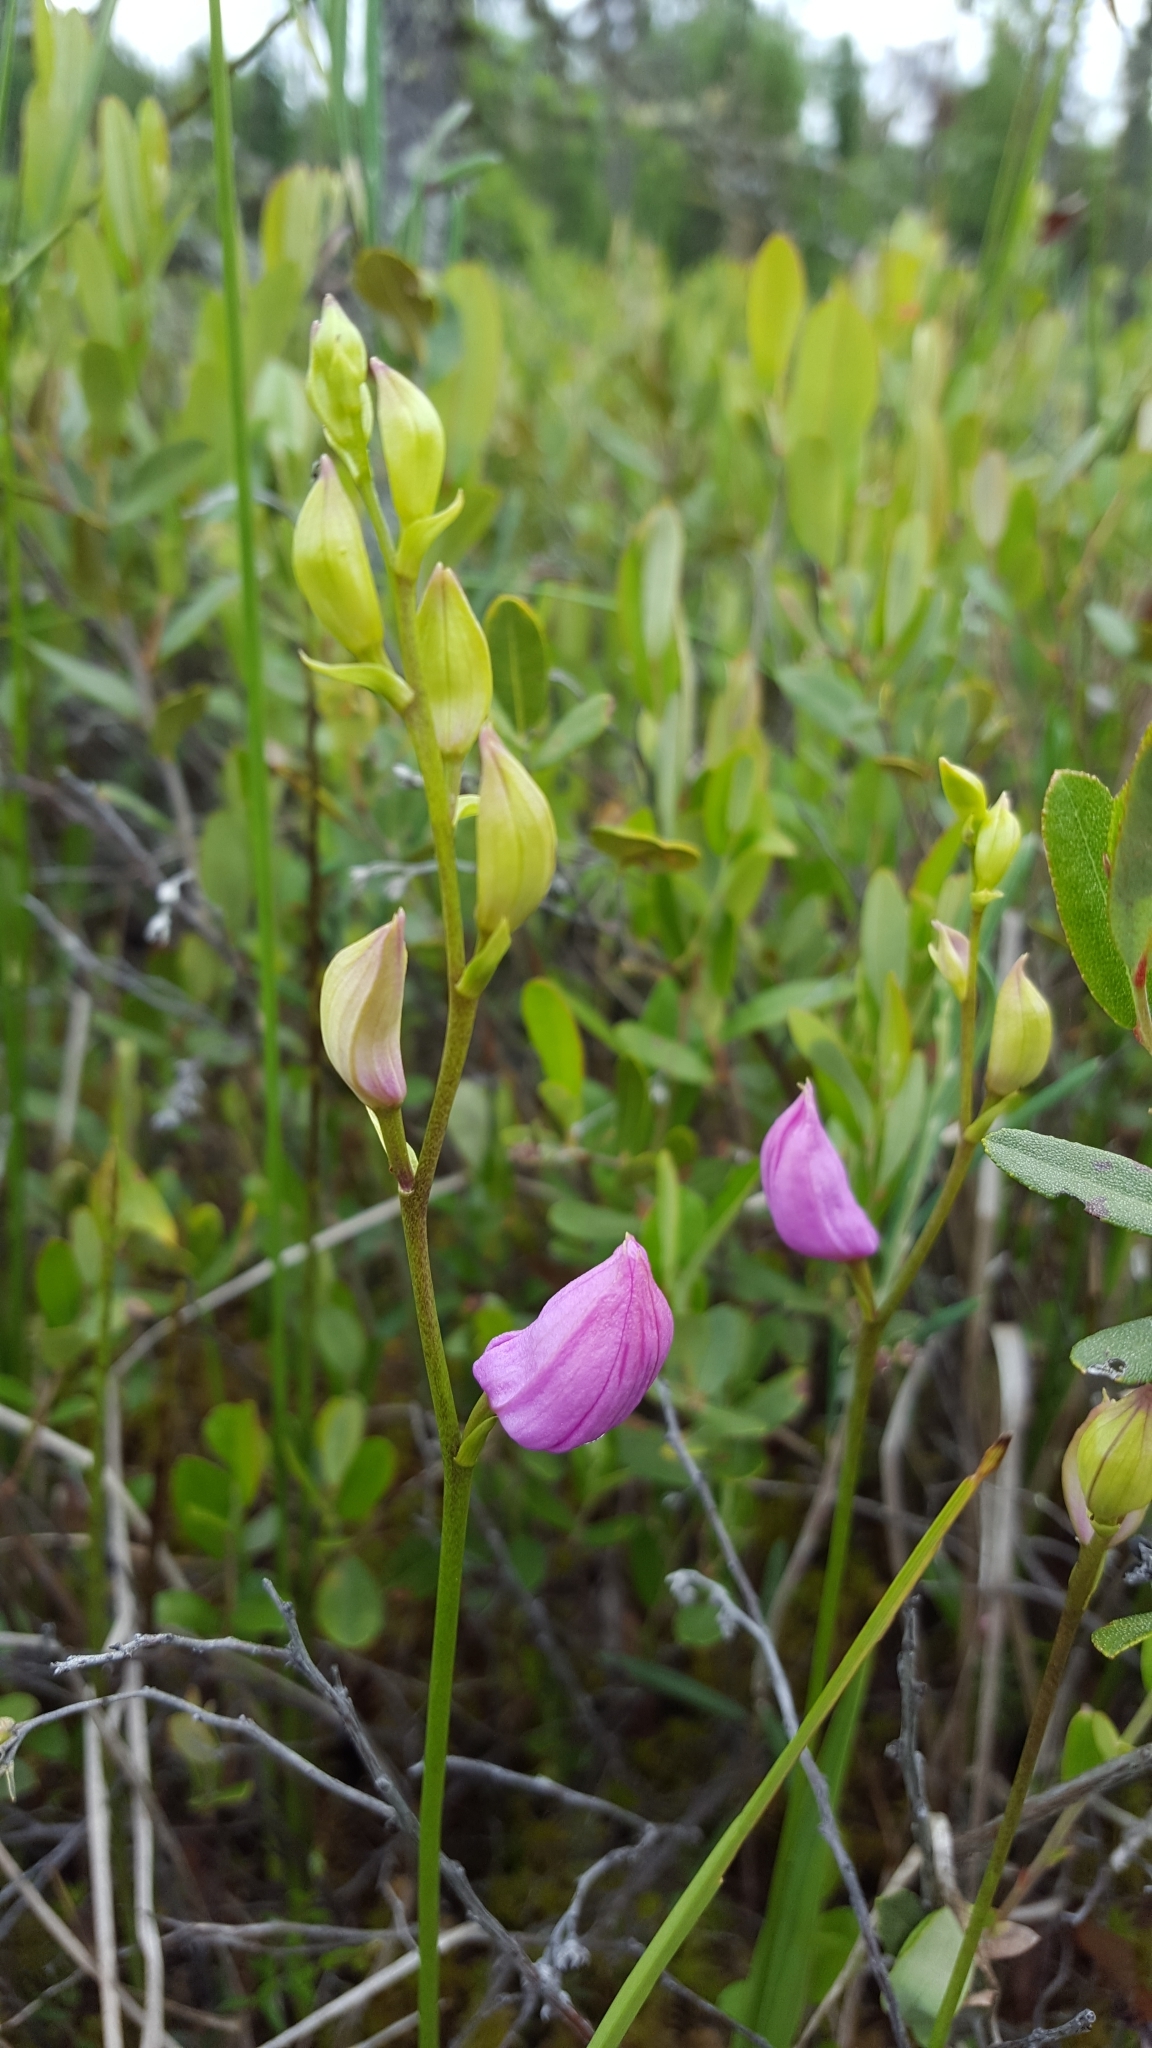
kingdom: Plantae
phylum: Tracheophyta
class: Liliopsida
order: Asparagales
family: Orchidaceae
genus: Calopogon
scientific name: Calopogon tuberosus
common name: Grass-pink
